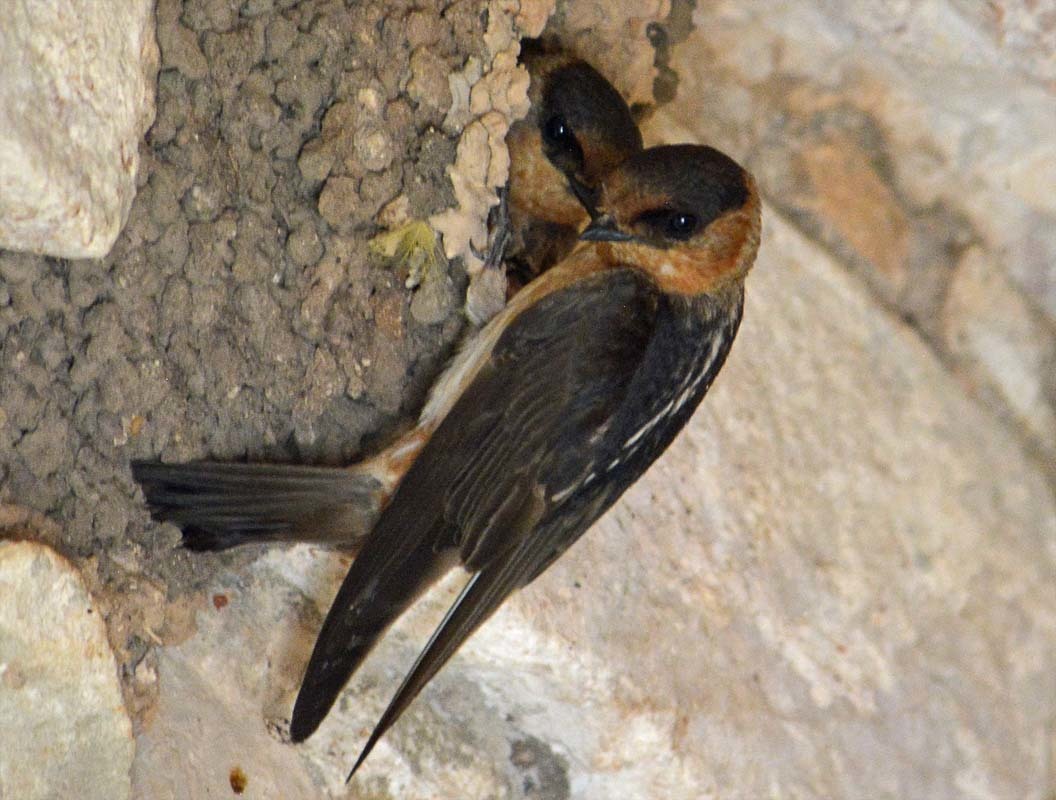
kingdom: Animalia
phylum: Chordata
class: Aves
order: Passeriformes
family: Hirundinidae
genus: Petrochelidon
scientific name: Petrochelidon fulva
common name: Cave swallow
